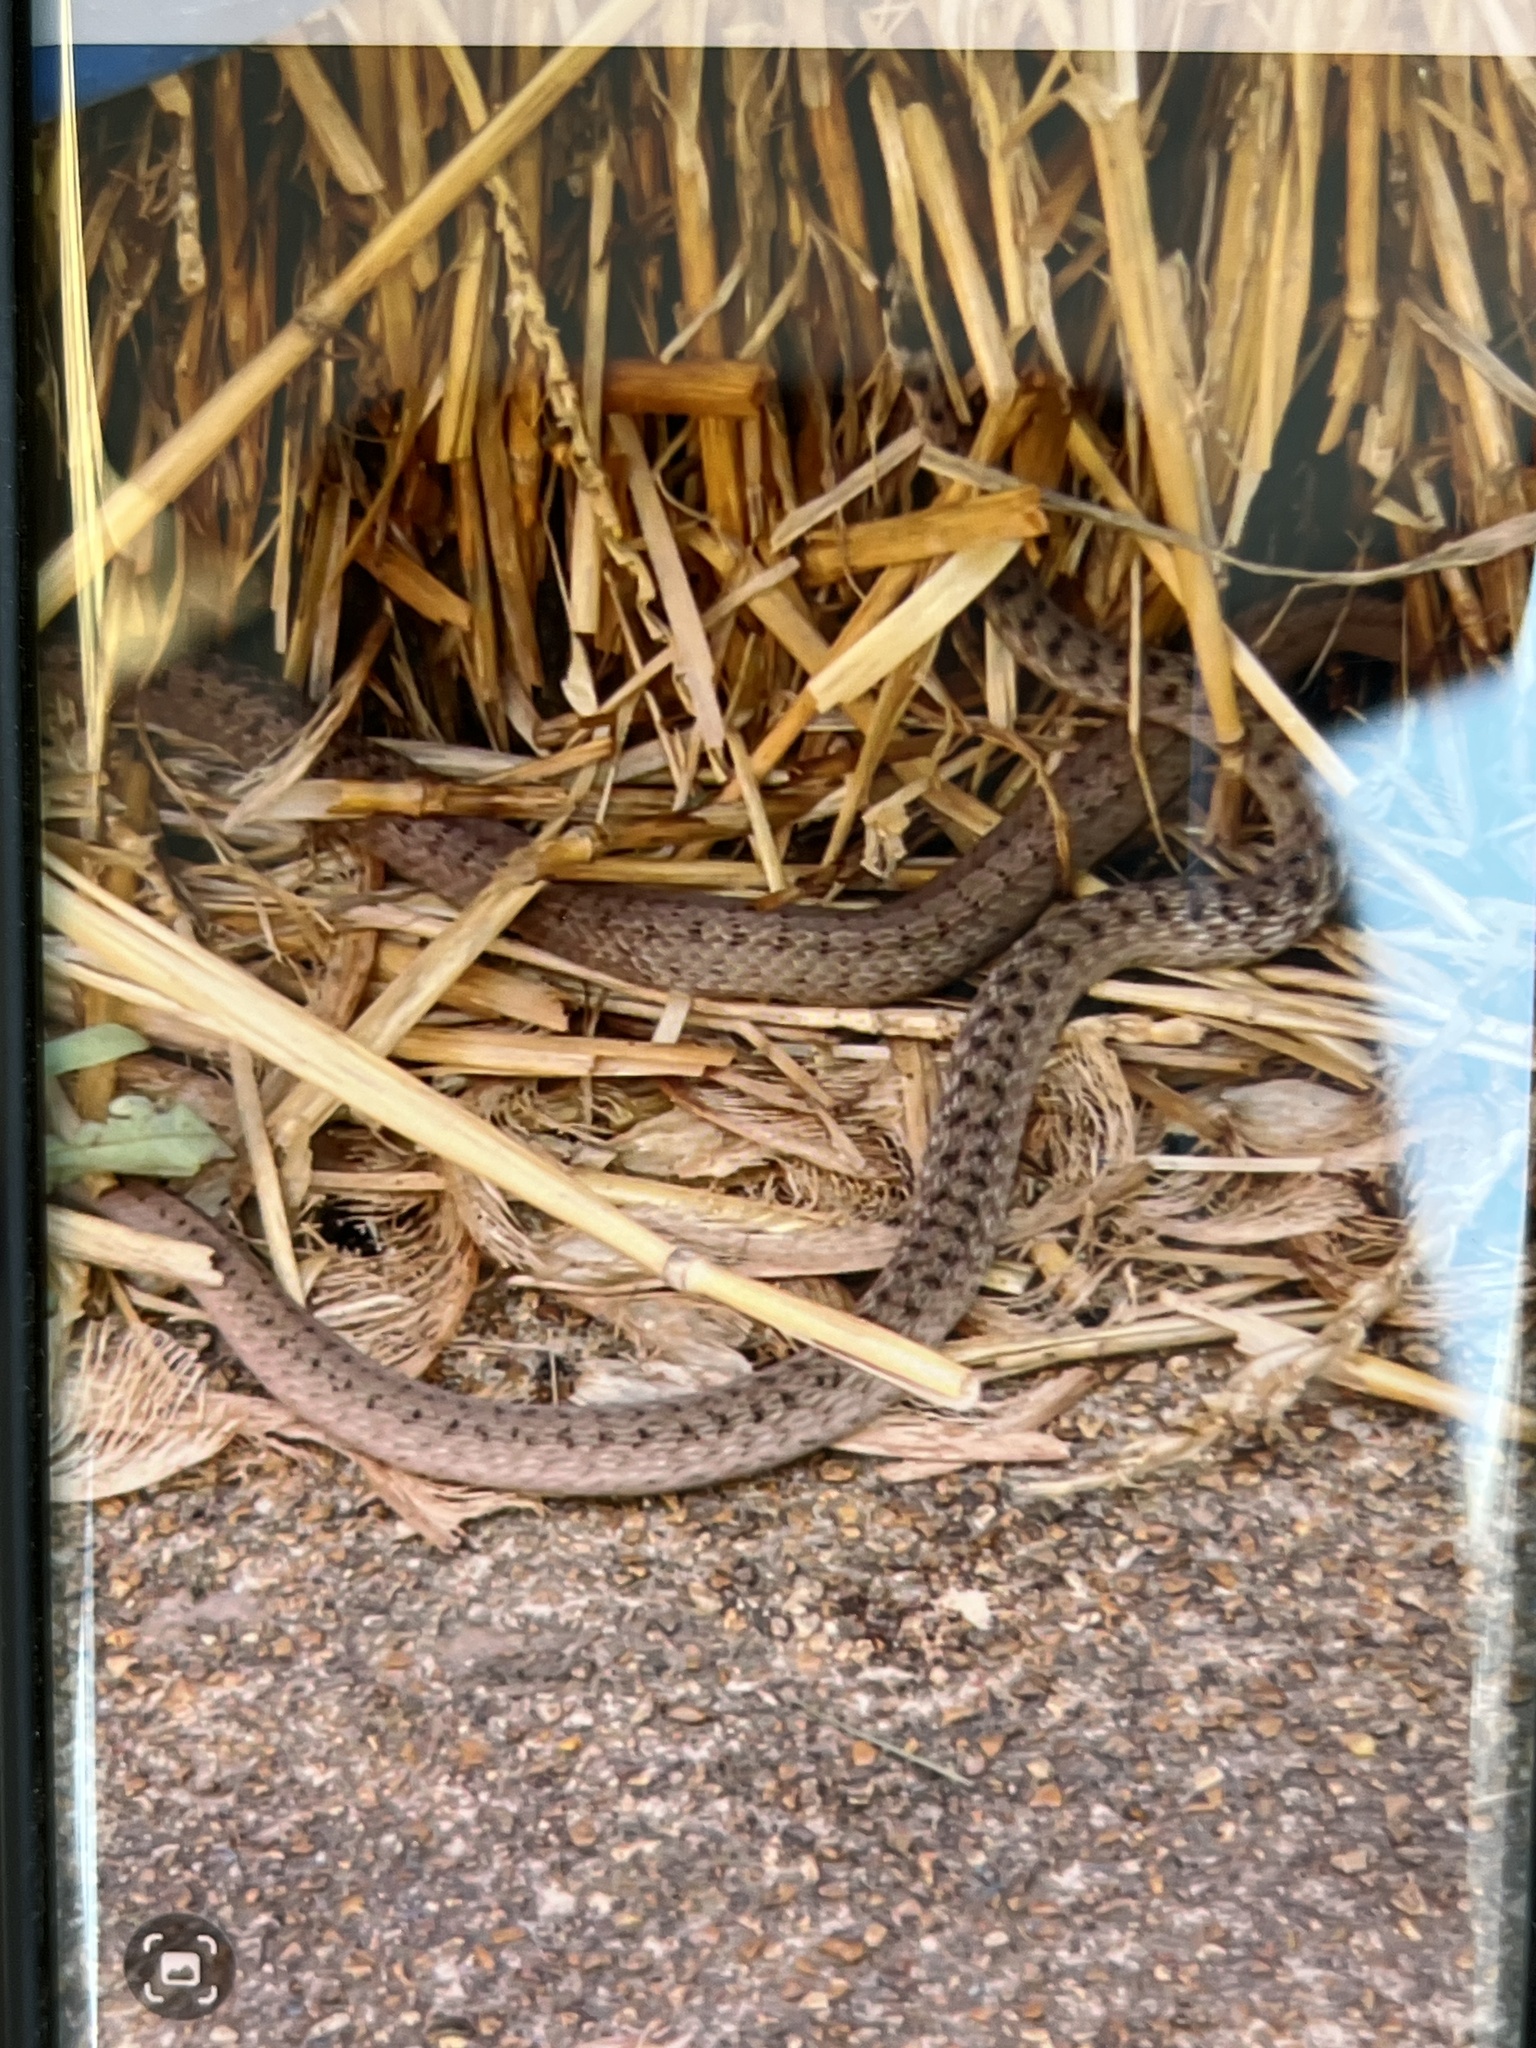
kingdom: Animalia
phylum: Chordata
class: Squamata
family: Colubridae
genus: Storeria
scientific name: Storeria dekayi
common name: (dekay’s) brown snake
